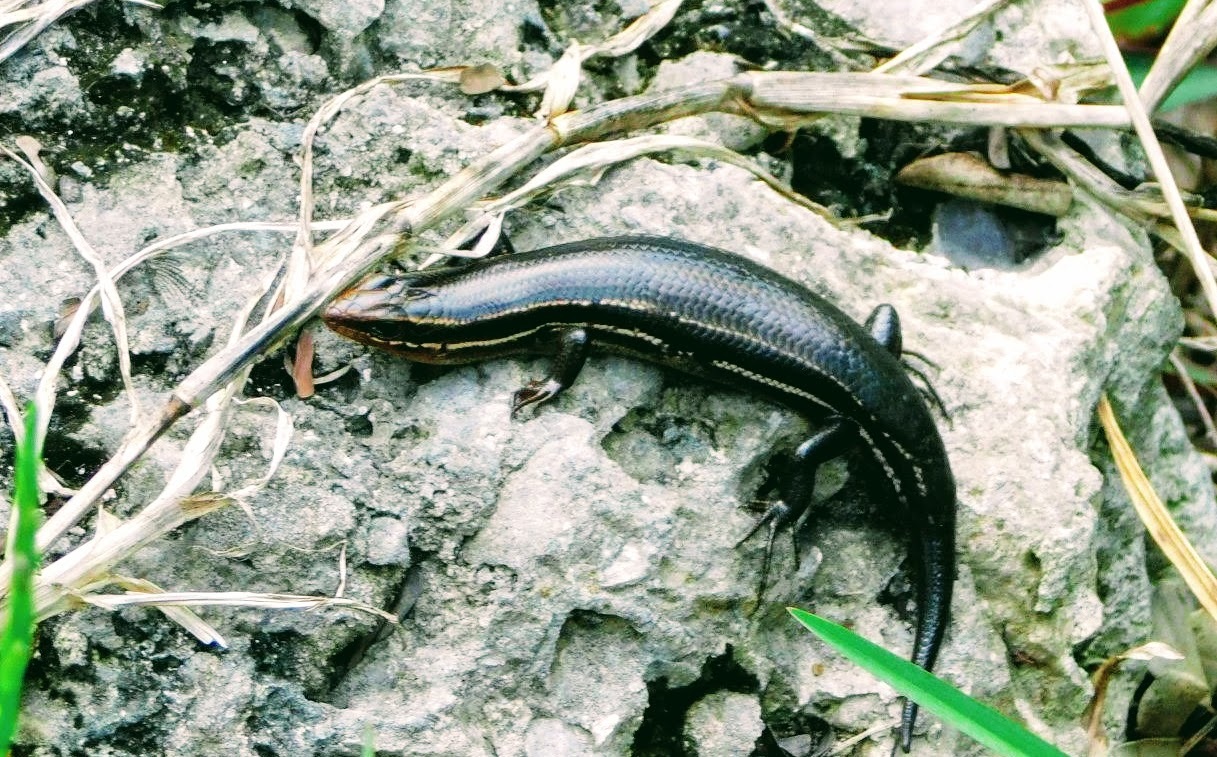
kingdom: Animalia
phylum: Chordata
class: Squamata
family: Scincidae
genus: Plestiodon
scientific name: Plestiodon inexpectatus
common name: Southeastern five-lined skink
